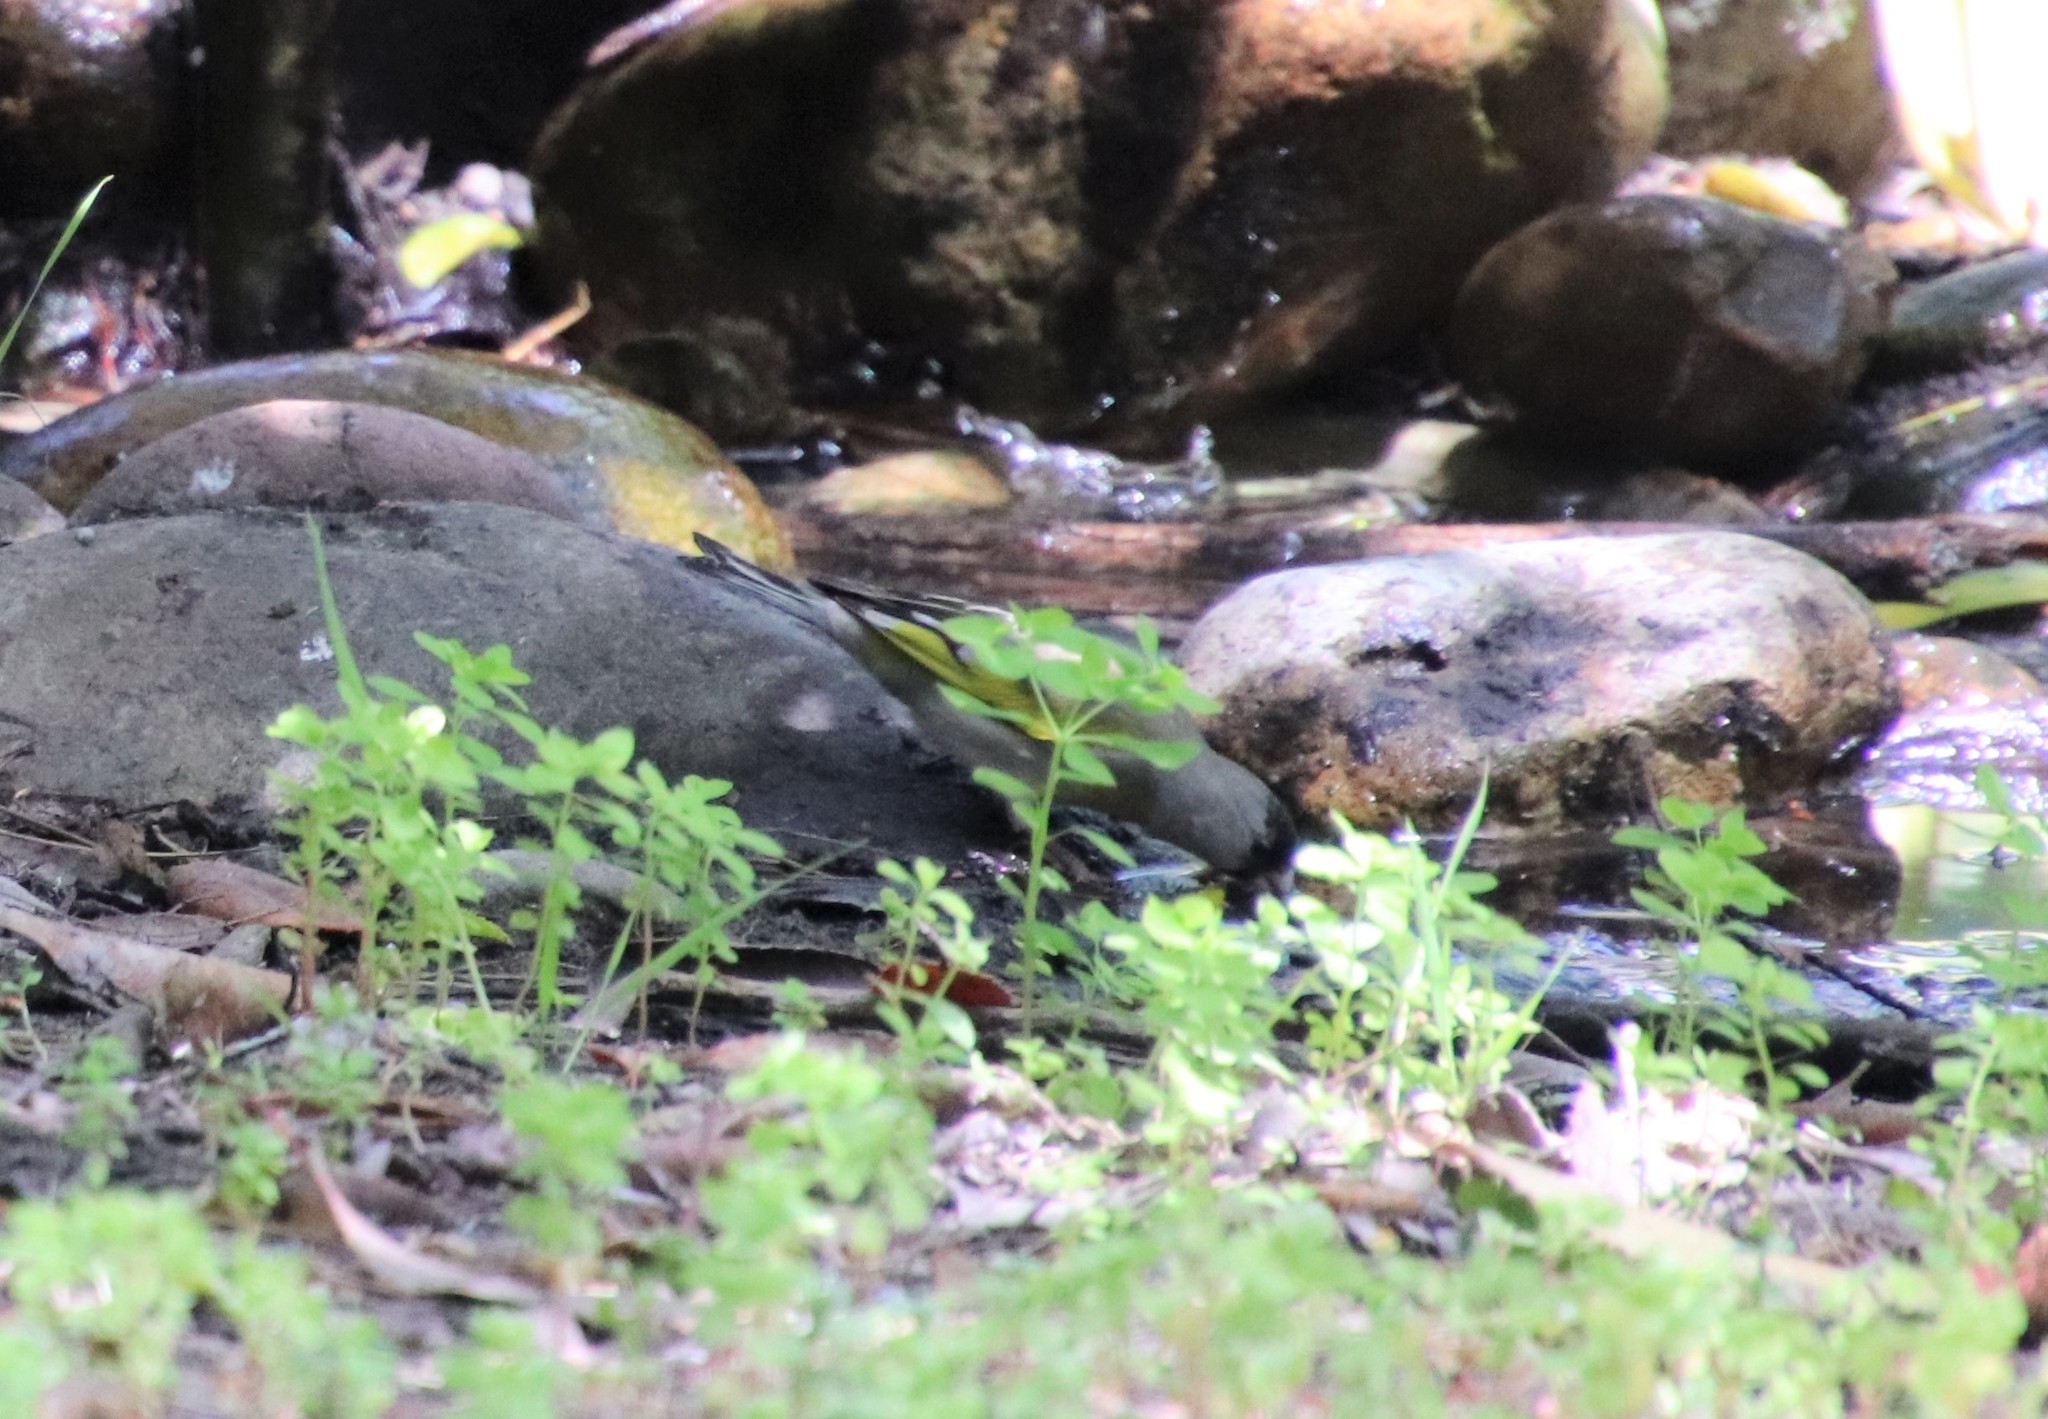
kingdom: Animalia
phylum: Chordata
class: Aves
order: Passeriformes
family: Fringillidae
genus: Spinus
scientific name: Spinus lawrencei
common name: Lawrence's goldfinch
